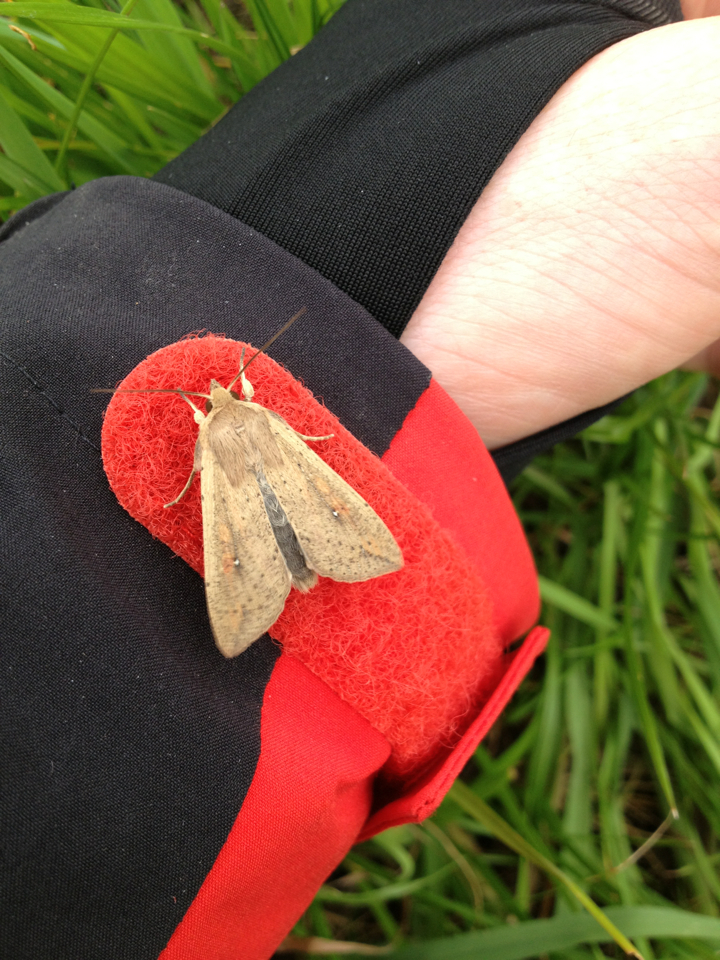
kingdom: Animalia
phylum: Arthropoda
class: Insecta
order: Lepidoptera
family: Noctuidae
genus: Mythimna
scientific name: Mythimna unipuncta
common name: White-speck
